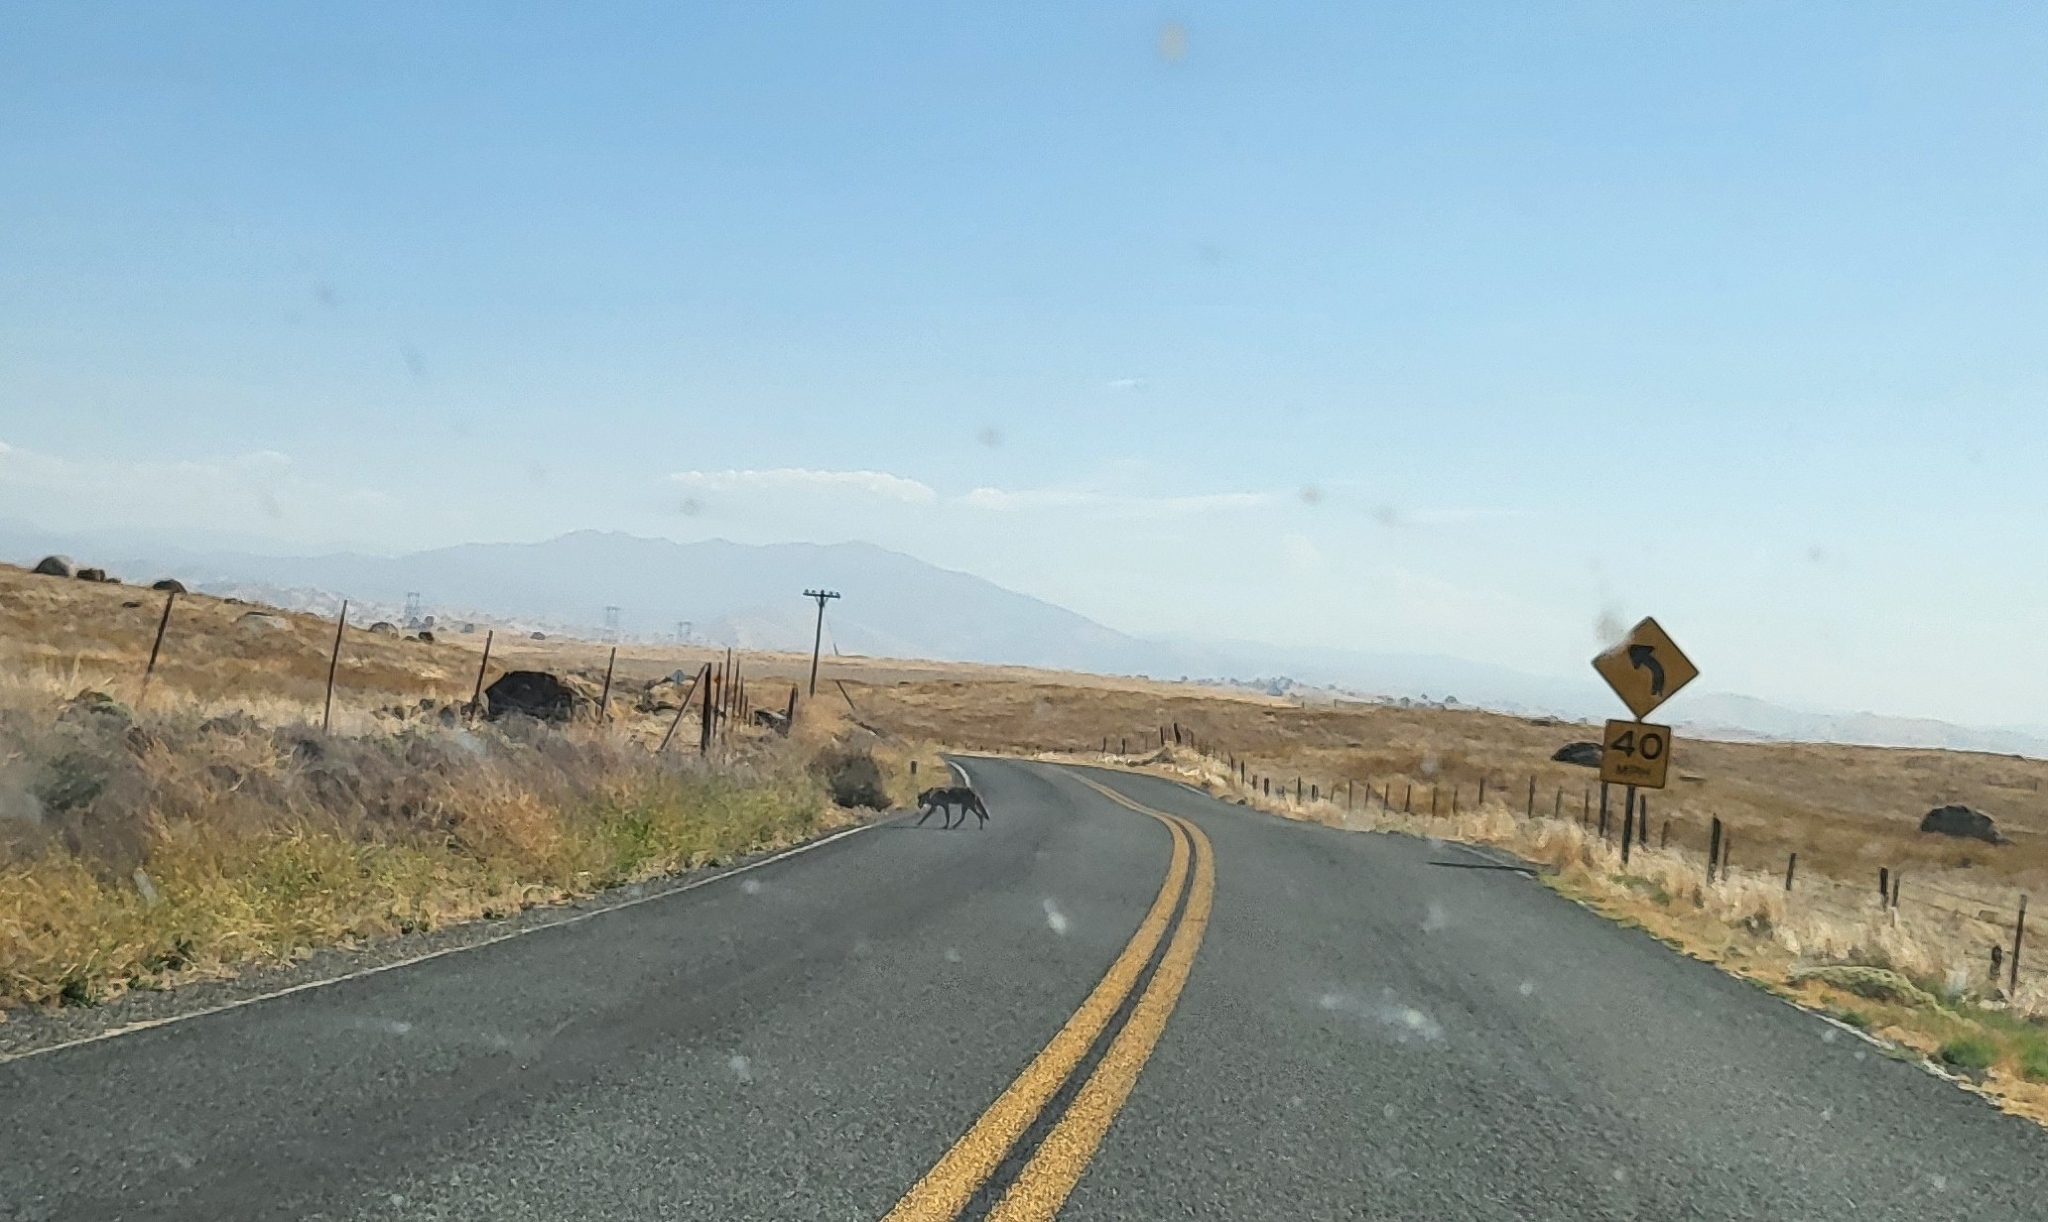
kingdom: Animalia
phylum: Chordata
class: Mammalia
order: Carnivora
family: Canidae
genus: Canis
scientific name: Canis latrans
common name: Coyote
